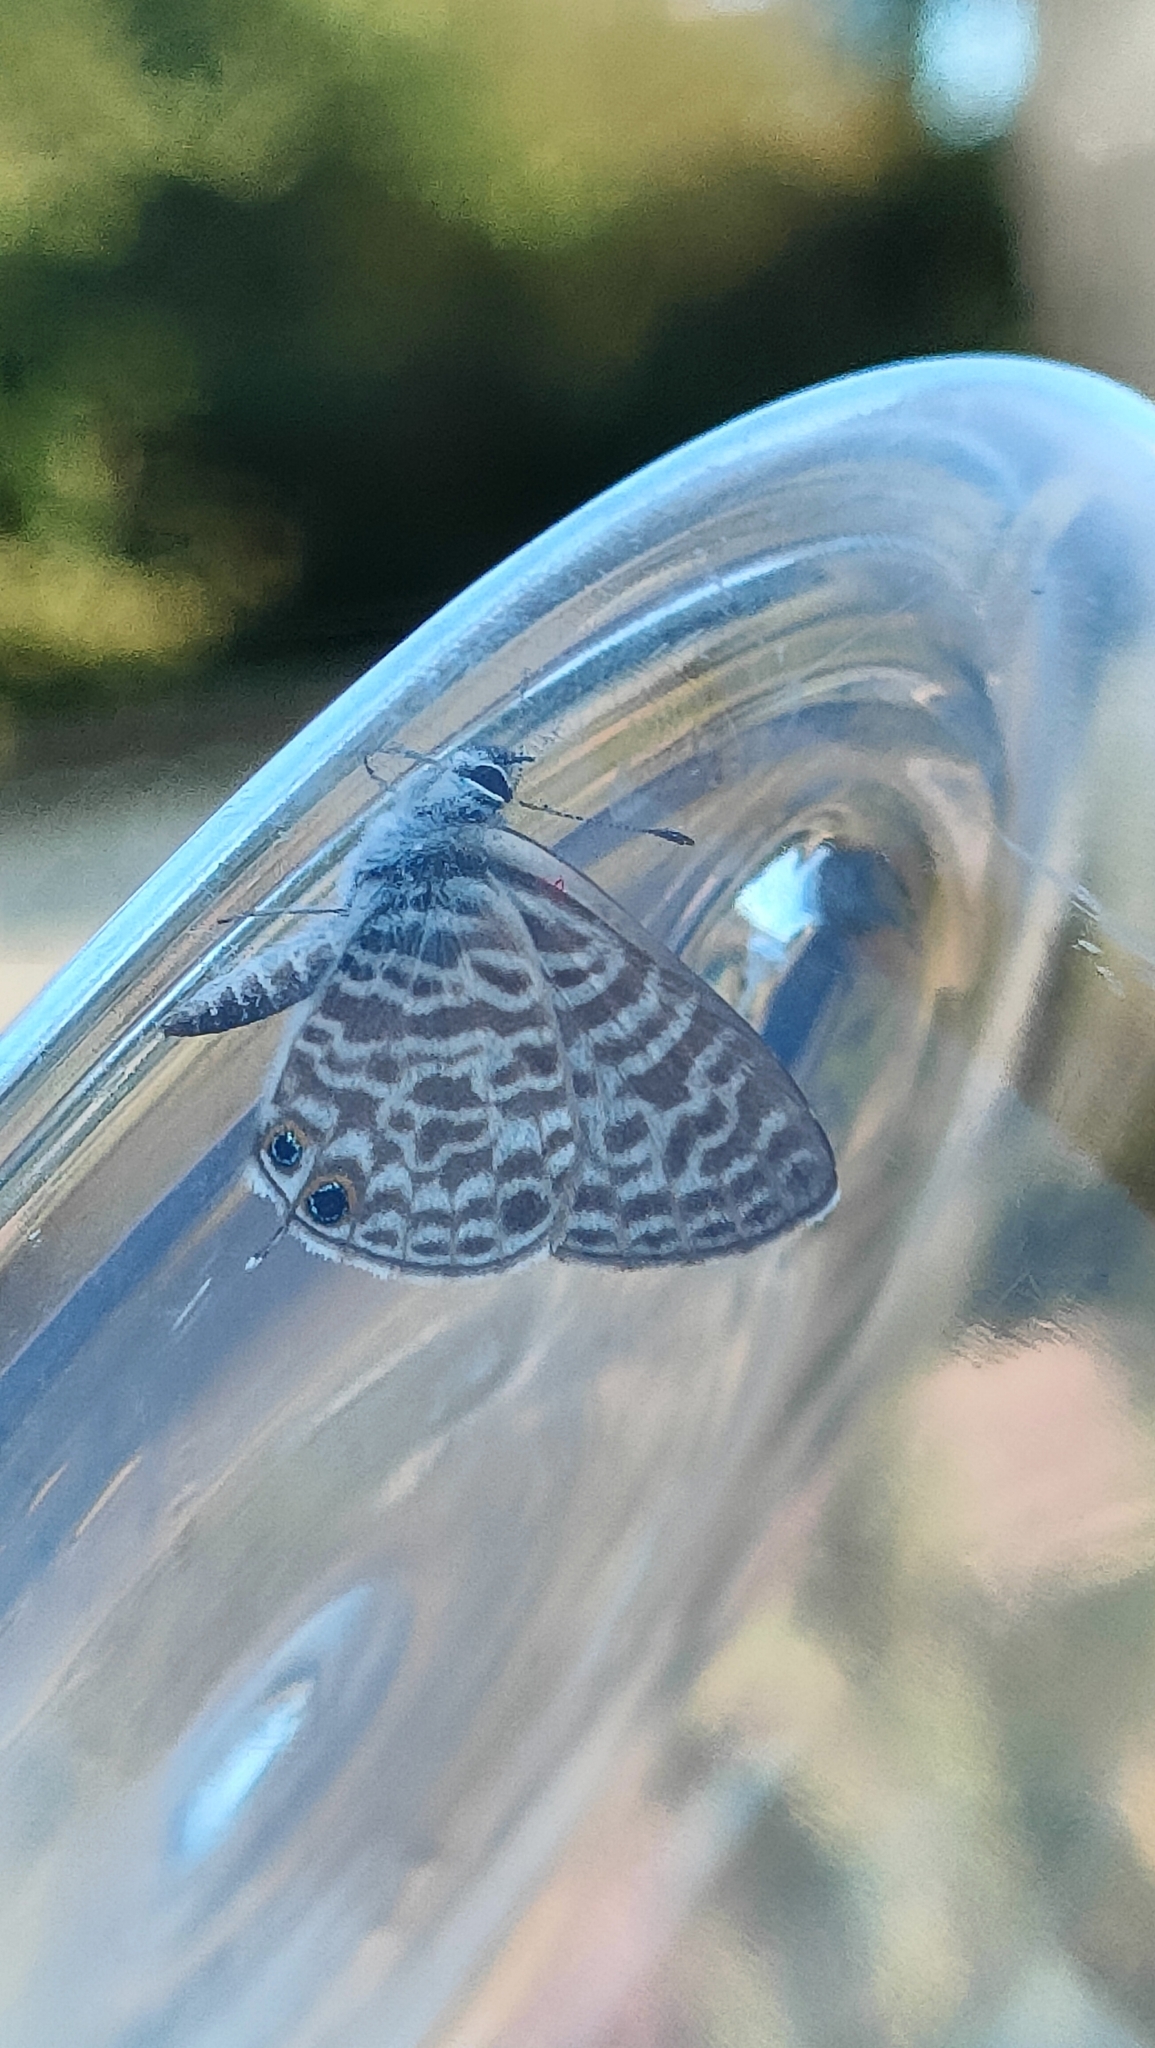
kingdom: Animalia
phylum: Arthropoda
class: Insecta
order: Lepidoptera
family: Lycaenidae
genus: Leptotes
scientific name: Leptotes pirithous
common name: Lang's short-tailed blue
